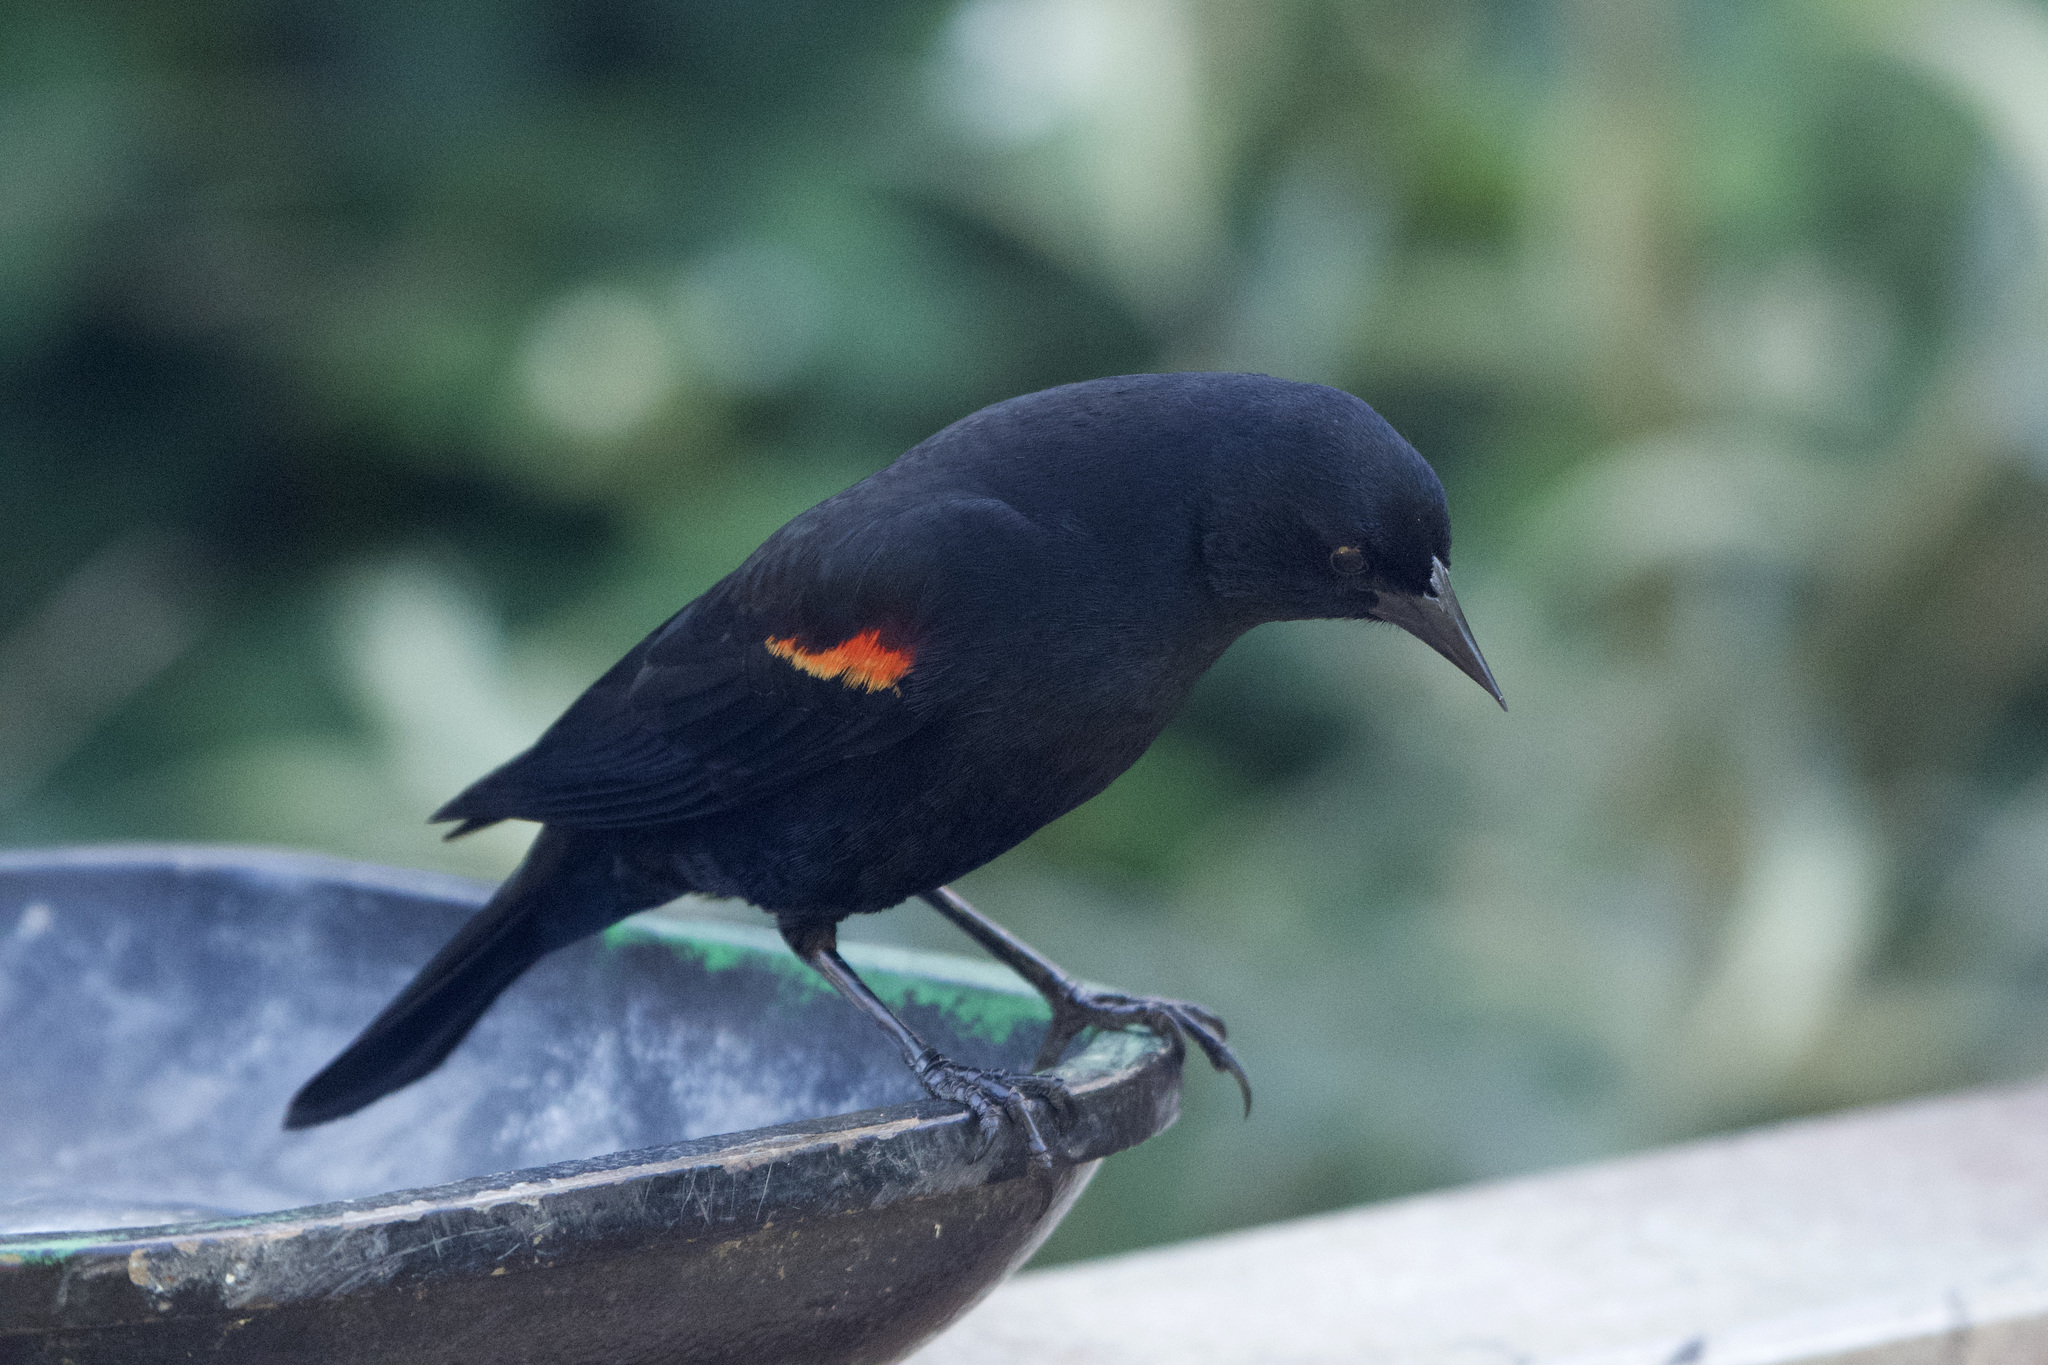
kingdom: Animalia
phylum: Chordata
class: Aves
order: Passeriformes
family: Icteridae
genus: Agelaius
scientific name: Agelaius phoeniceus
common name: Red-winged blackbird
